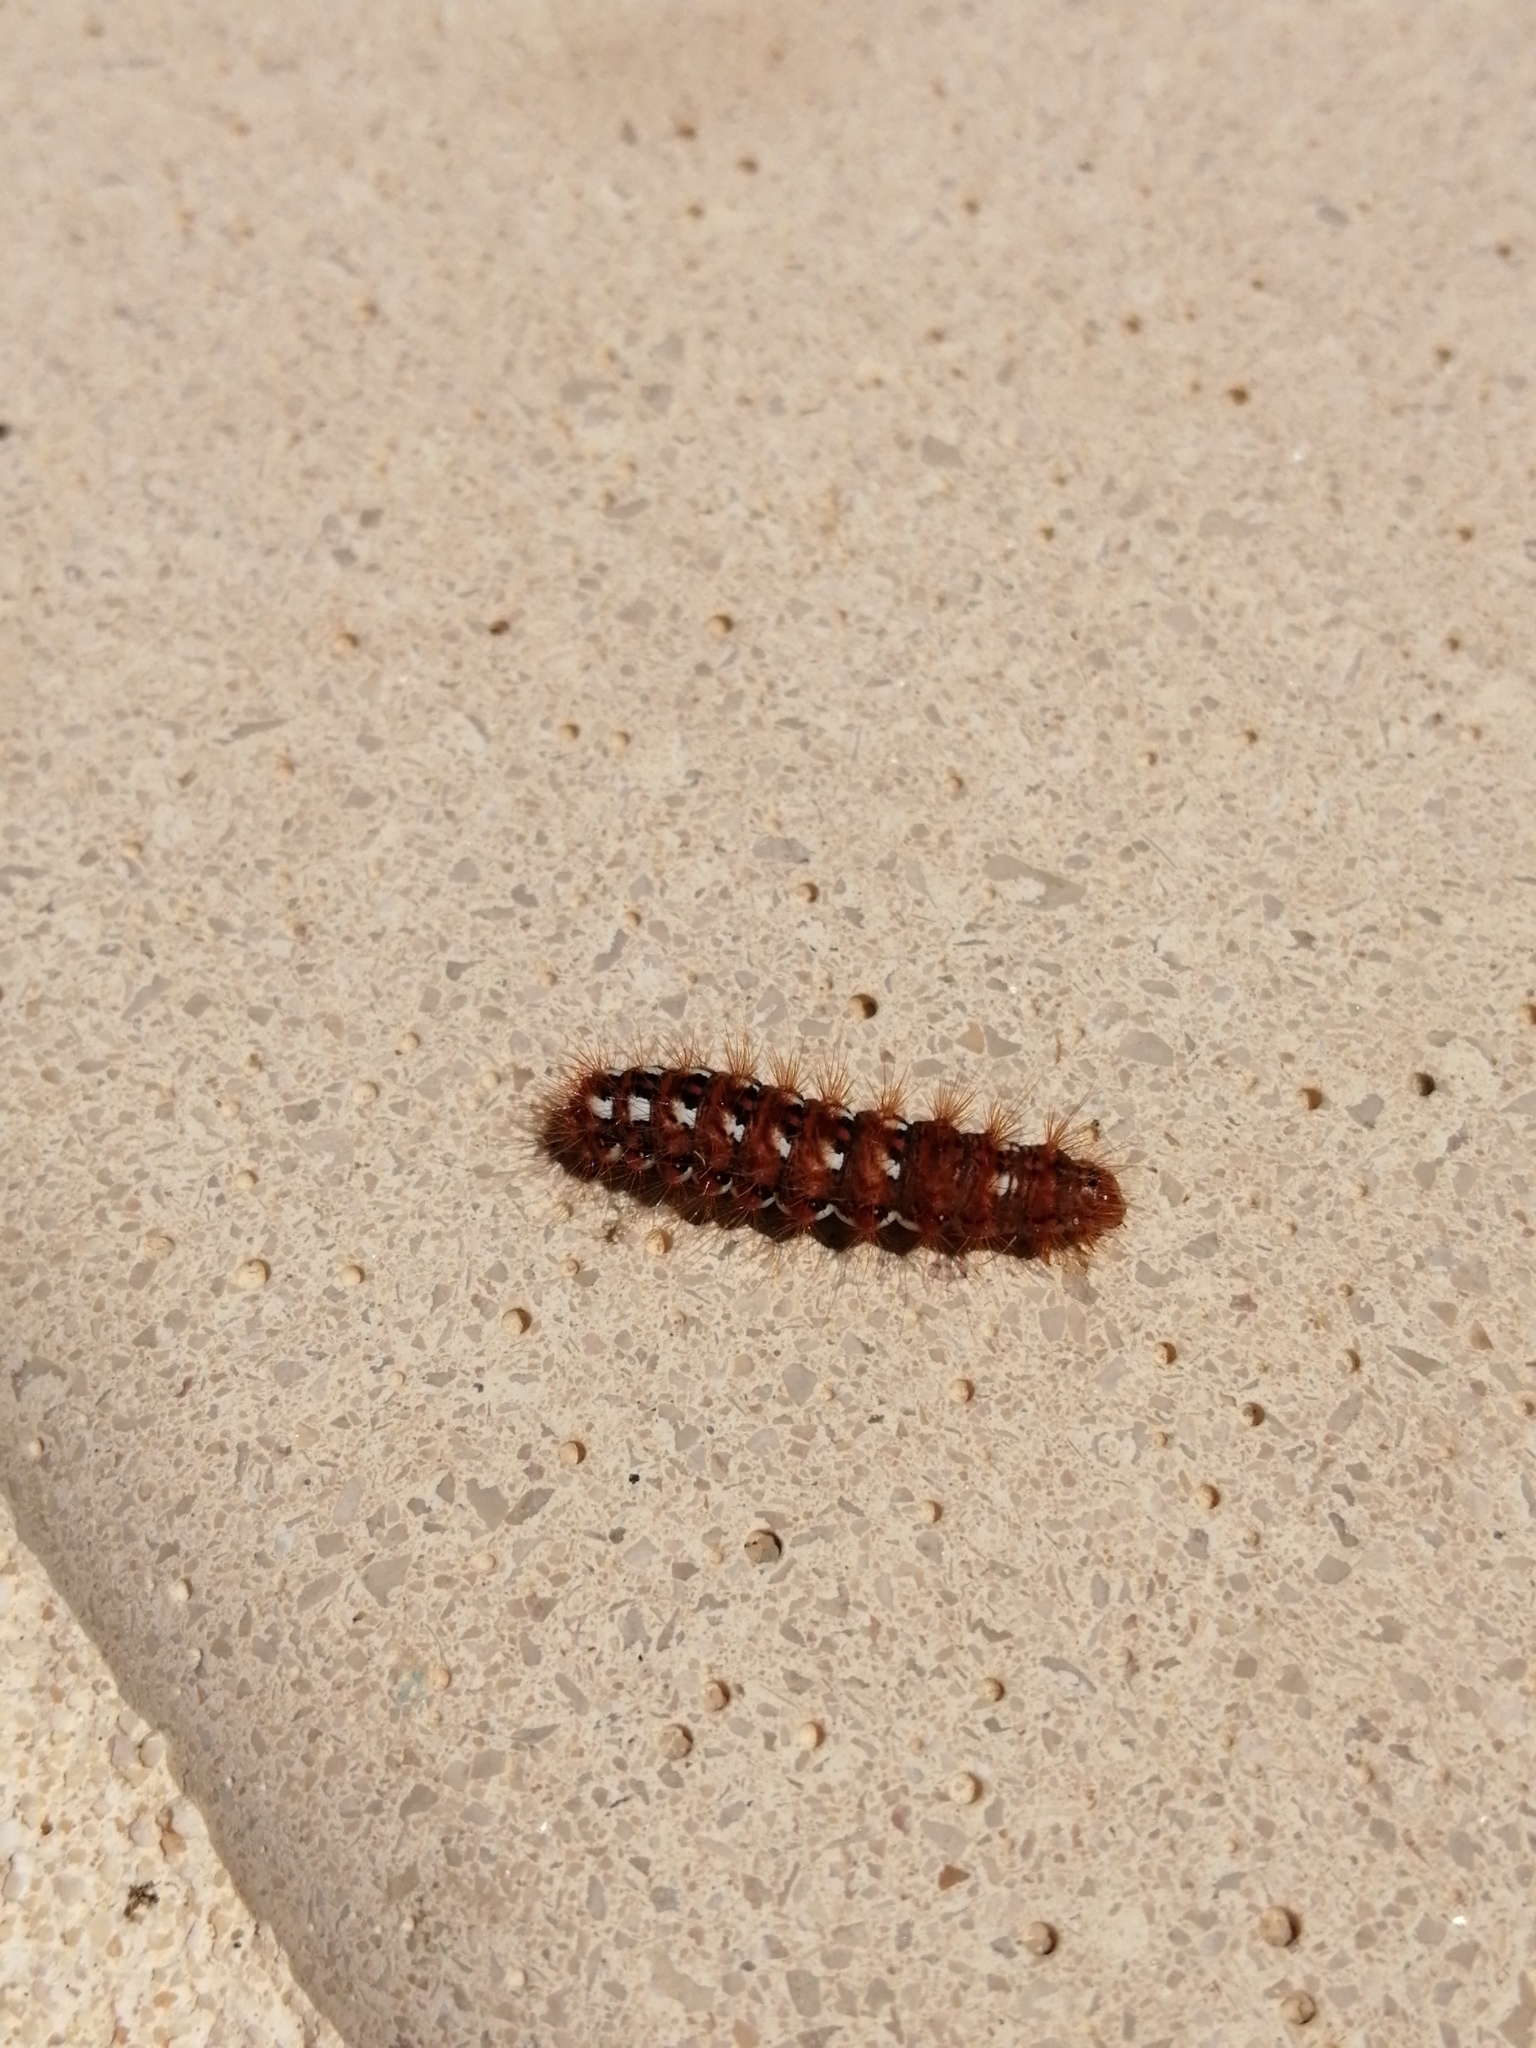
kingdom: Animalia
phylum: Arthropoda
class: Insecta
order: Lepidoptera
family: Noctuidae
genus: Acronicta
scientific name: Acronicta rumicis
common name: Knot grass
